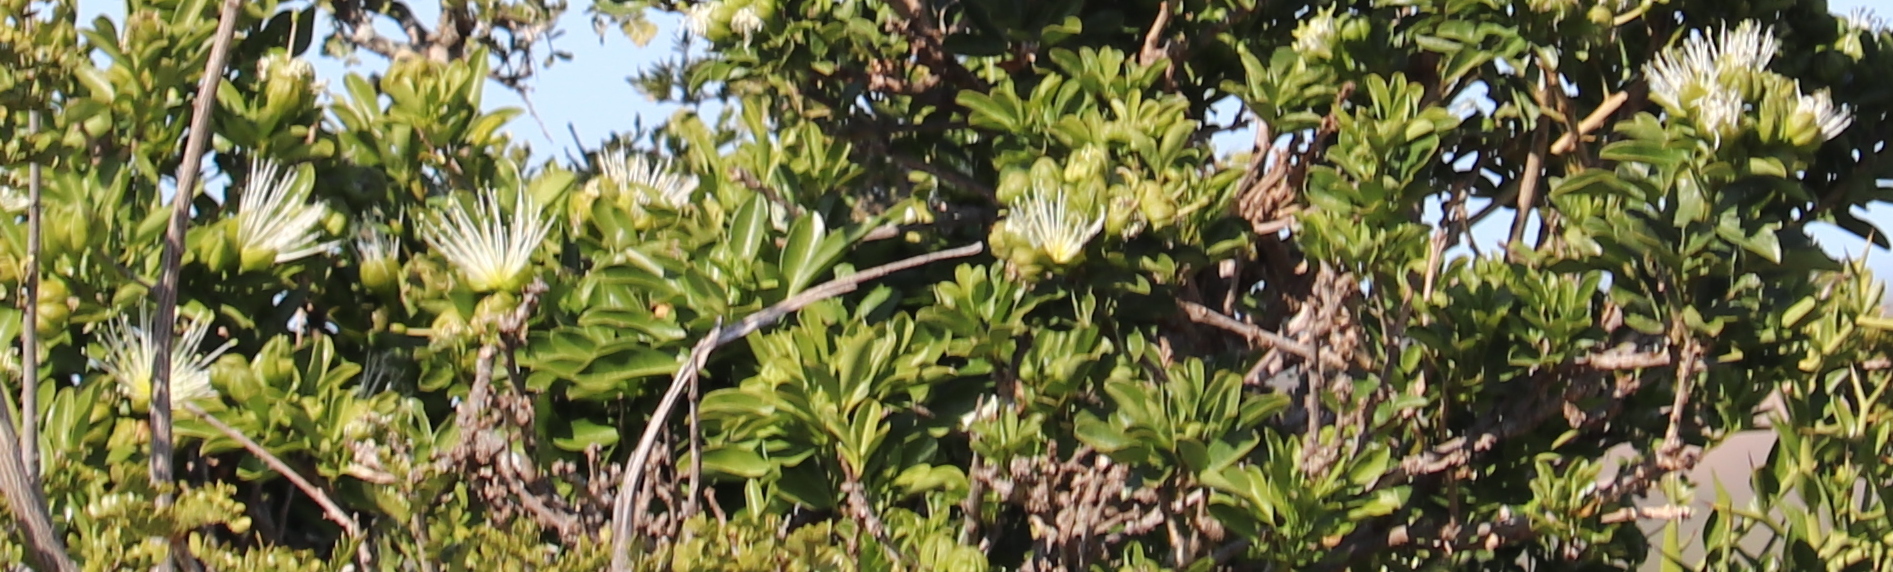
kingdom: Plantae
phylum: Tracheophyta
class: Magnoliopsida
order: Brassicales
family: Capparaceae
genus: Maerua
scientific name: Maerua cafra
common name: Bush maerua
